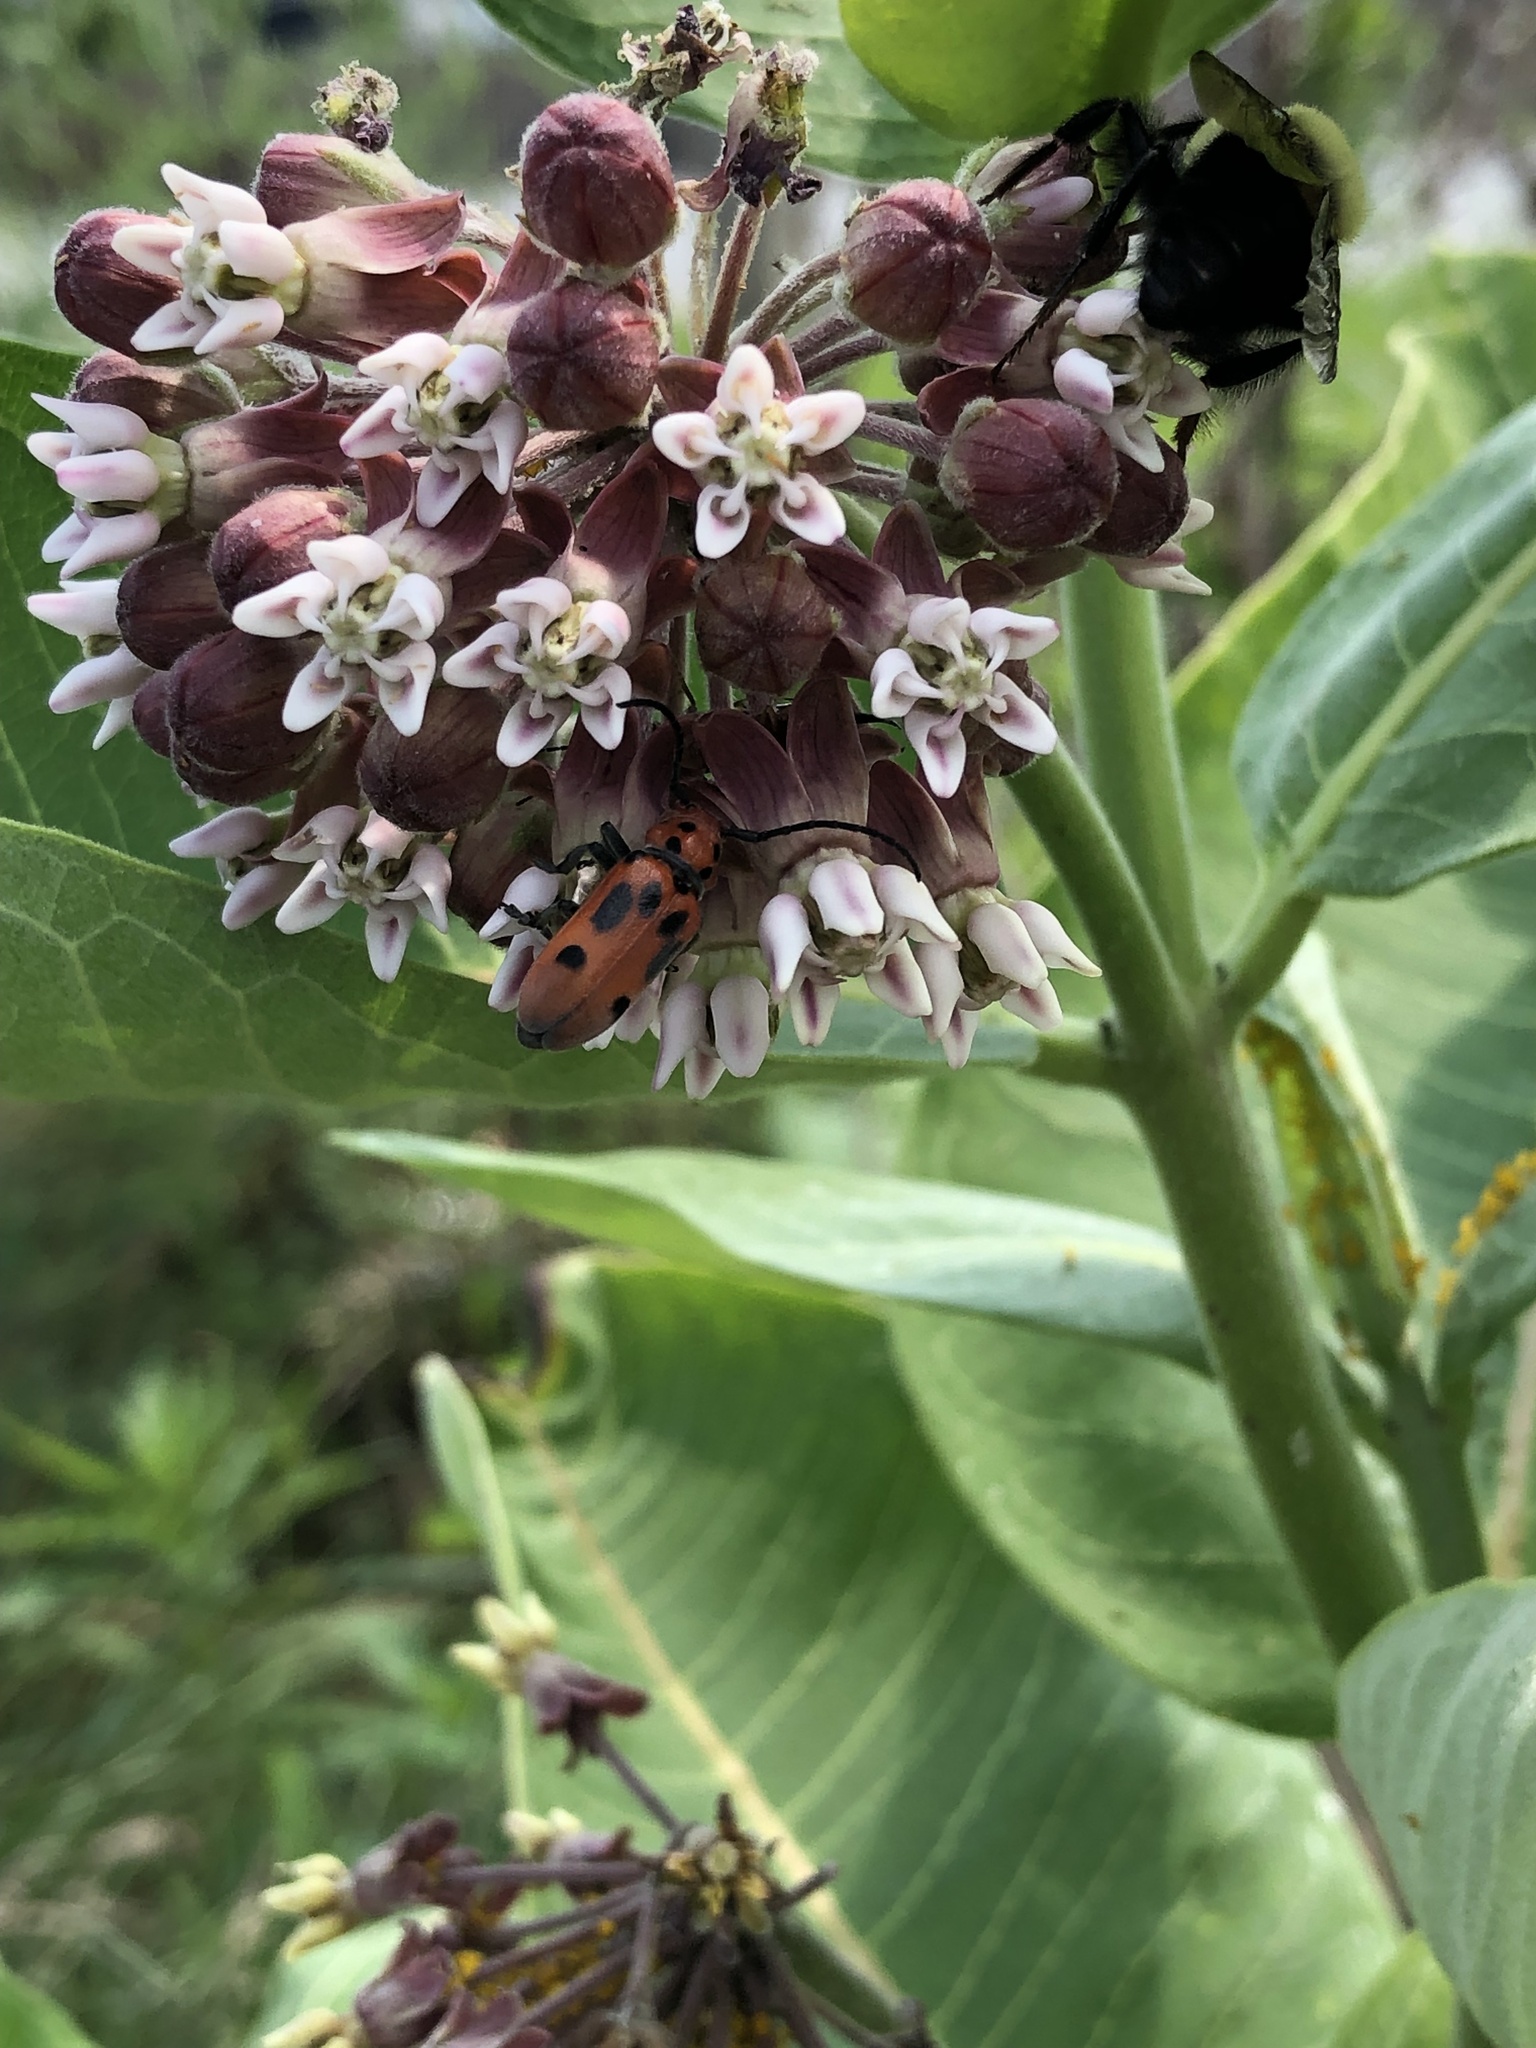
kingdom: Animalia
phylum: Arthropoda
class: Insecta
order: Coleoptera
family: Cerambycidae
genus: Tetraopes
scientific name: Tetraopes tetrophthalmus
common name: Red milkweed beetle
